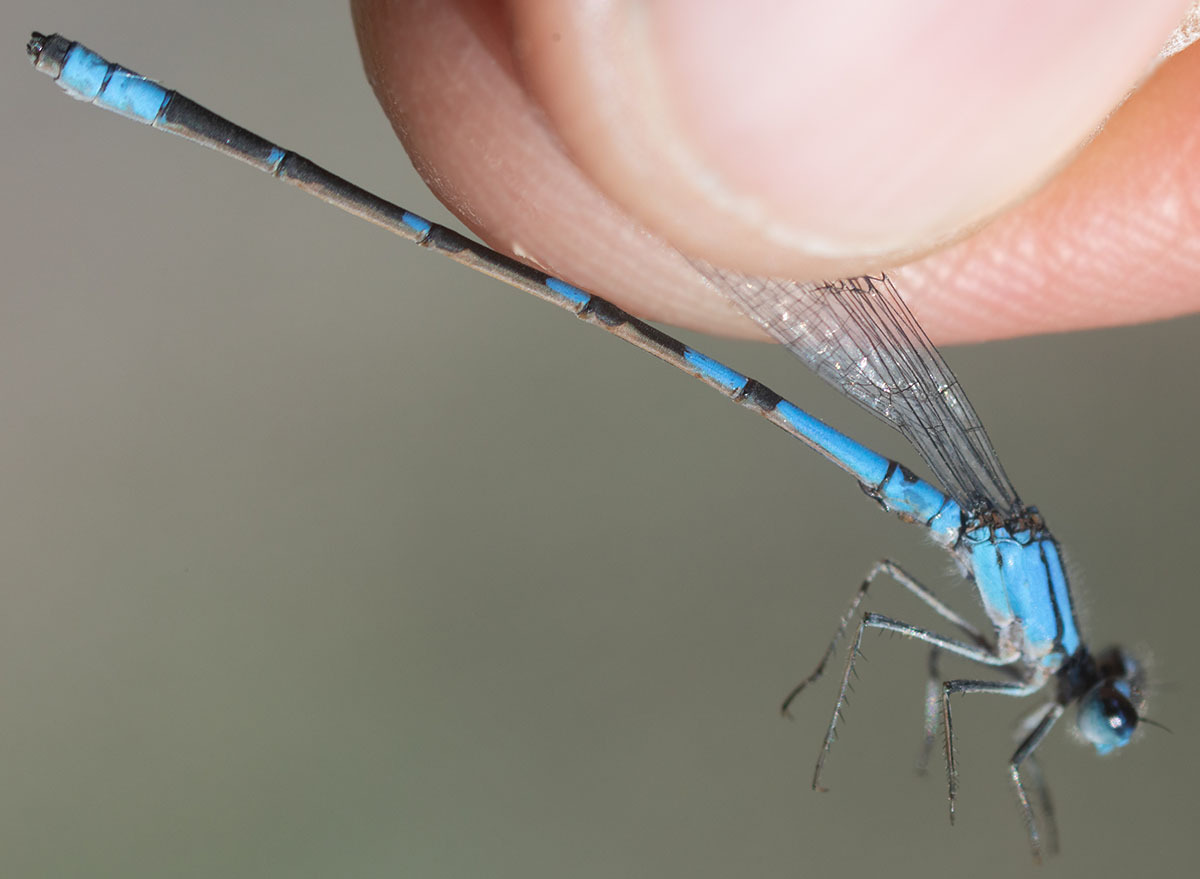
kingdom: Animalia
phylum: Arthropoda
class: Insecta
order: Odonata
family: Coenagrionidae
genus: Enallagma
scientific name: Enallagma praevarum
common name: Arroyo bluet
